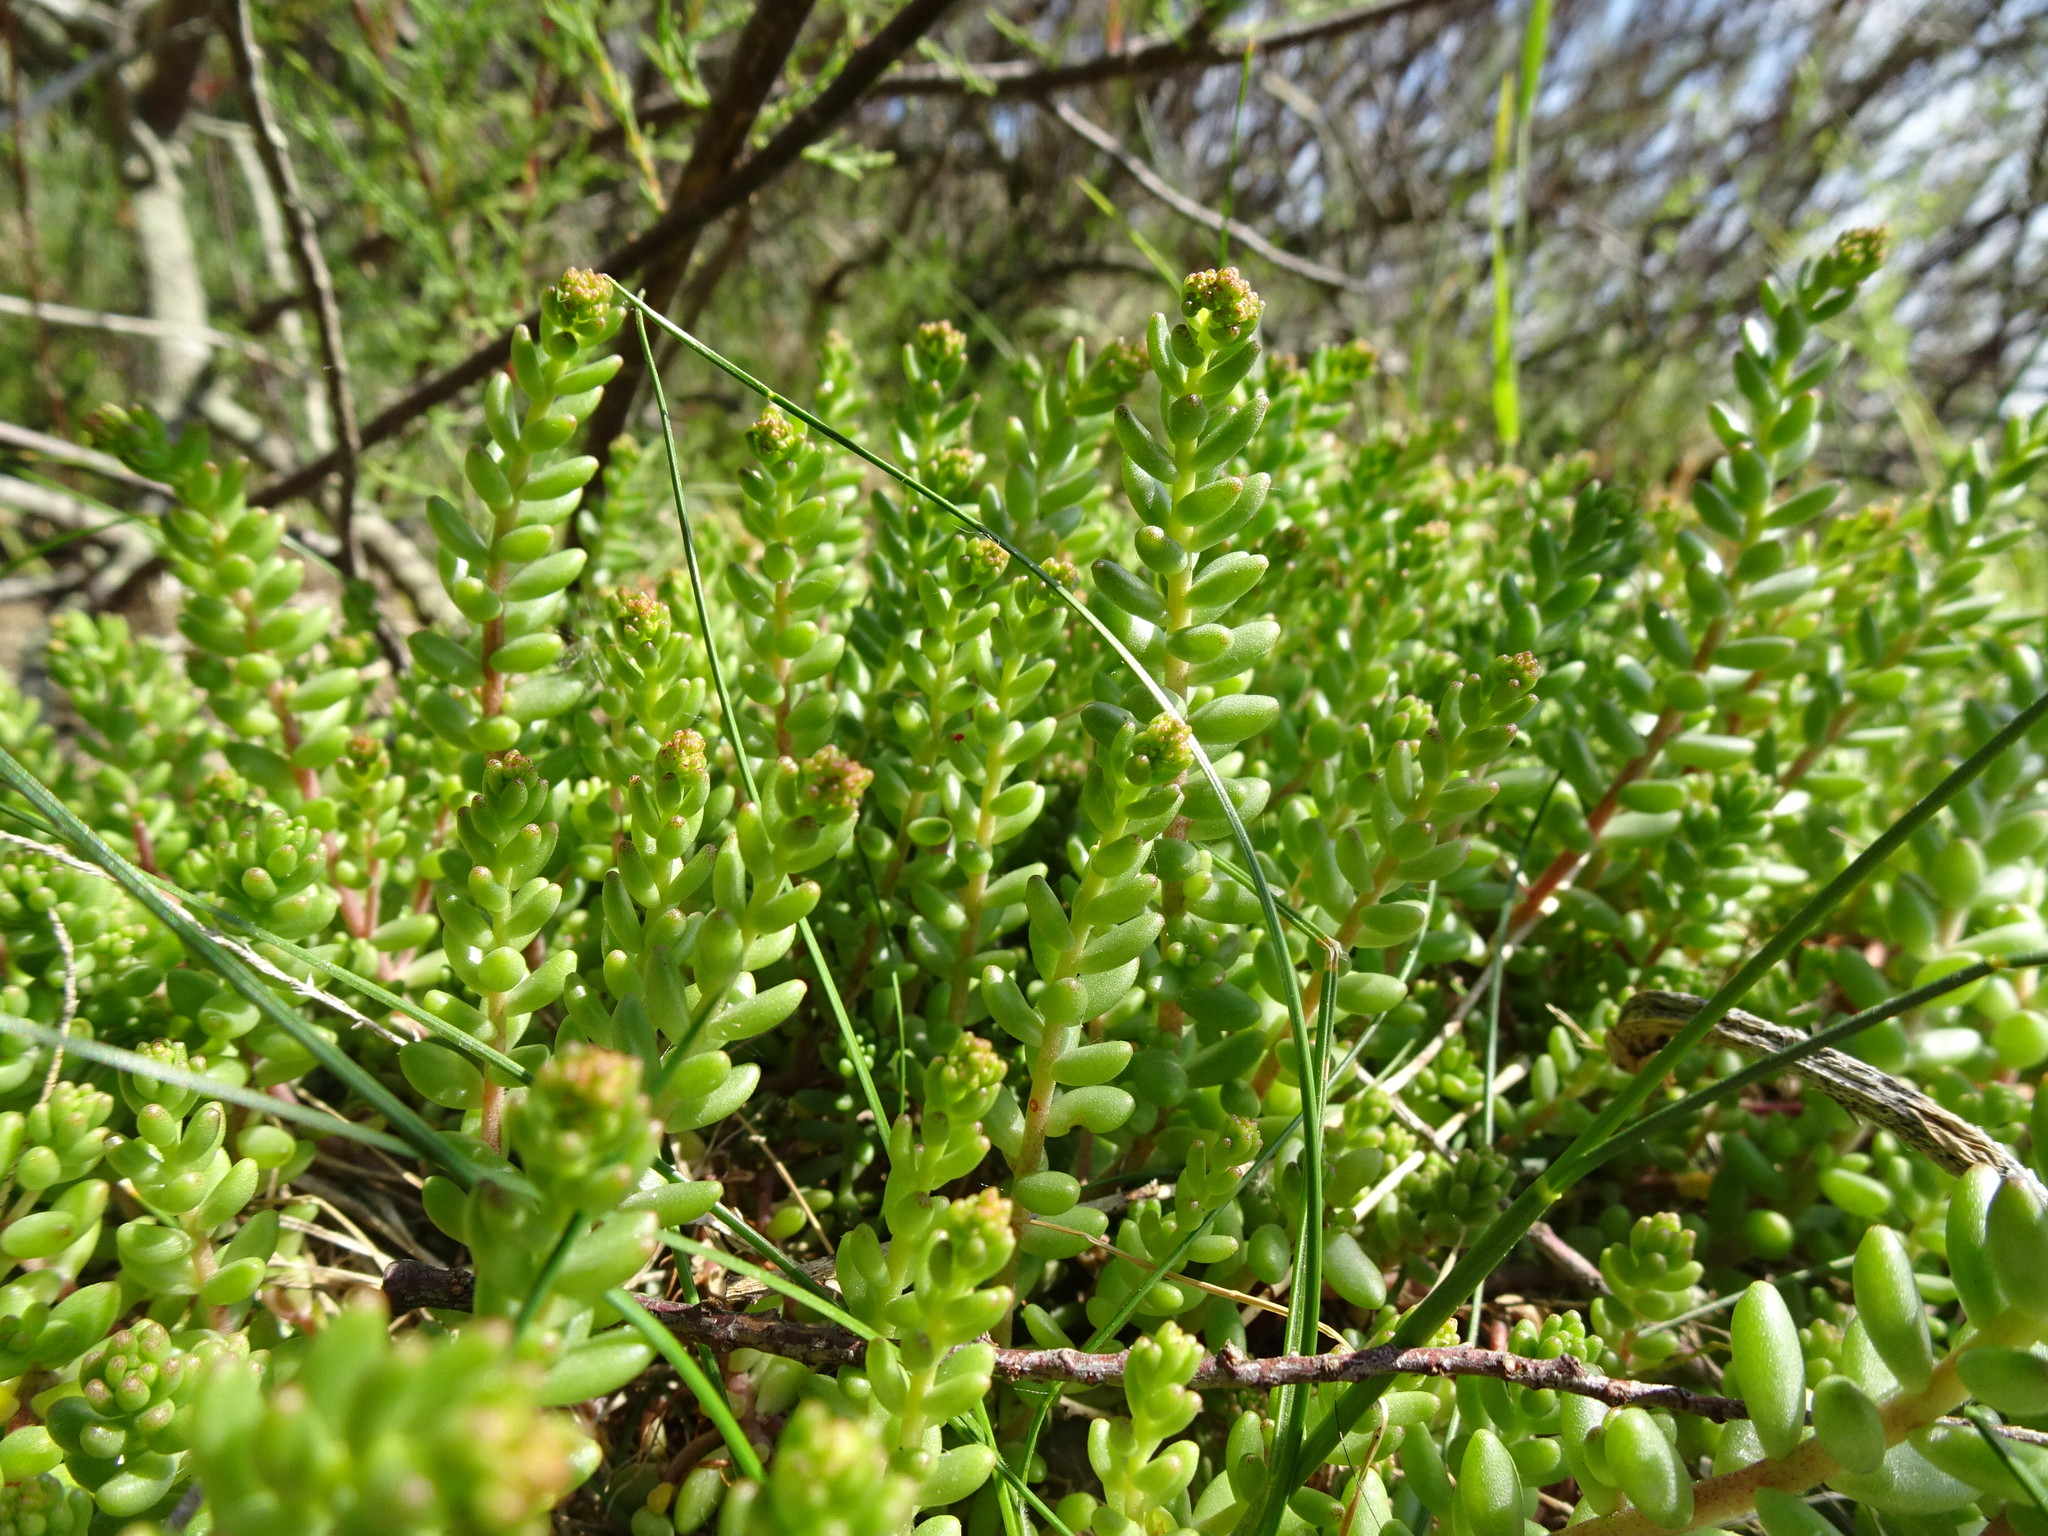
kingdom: Plantae
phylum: Tracheophyta
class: Magnoliopsida
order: Saxifragales
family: Crassulaceae
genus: Sedum
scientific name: Sedum album
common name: White stonecrop
